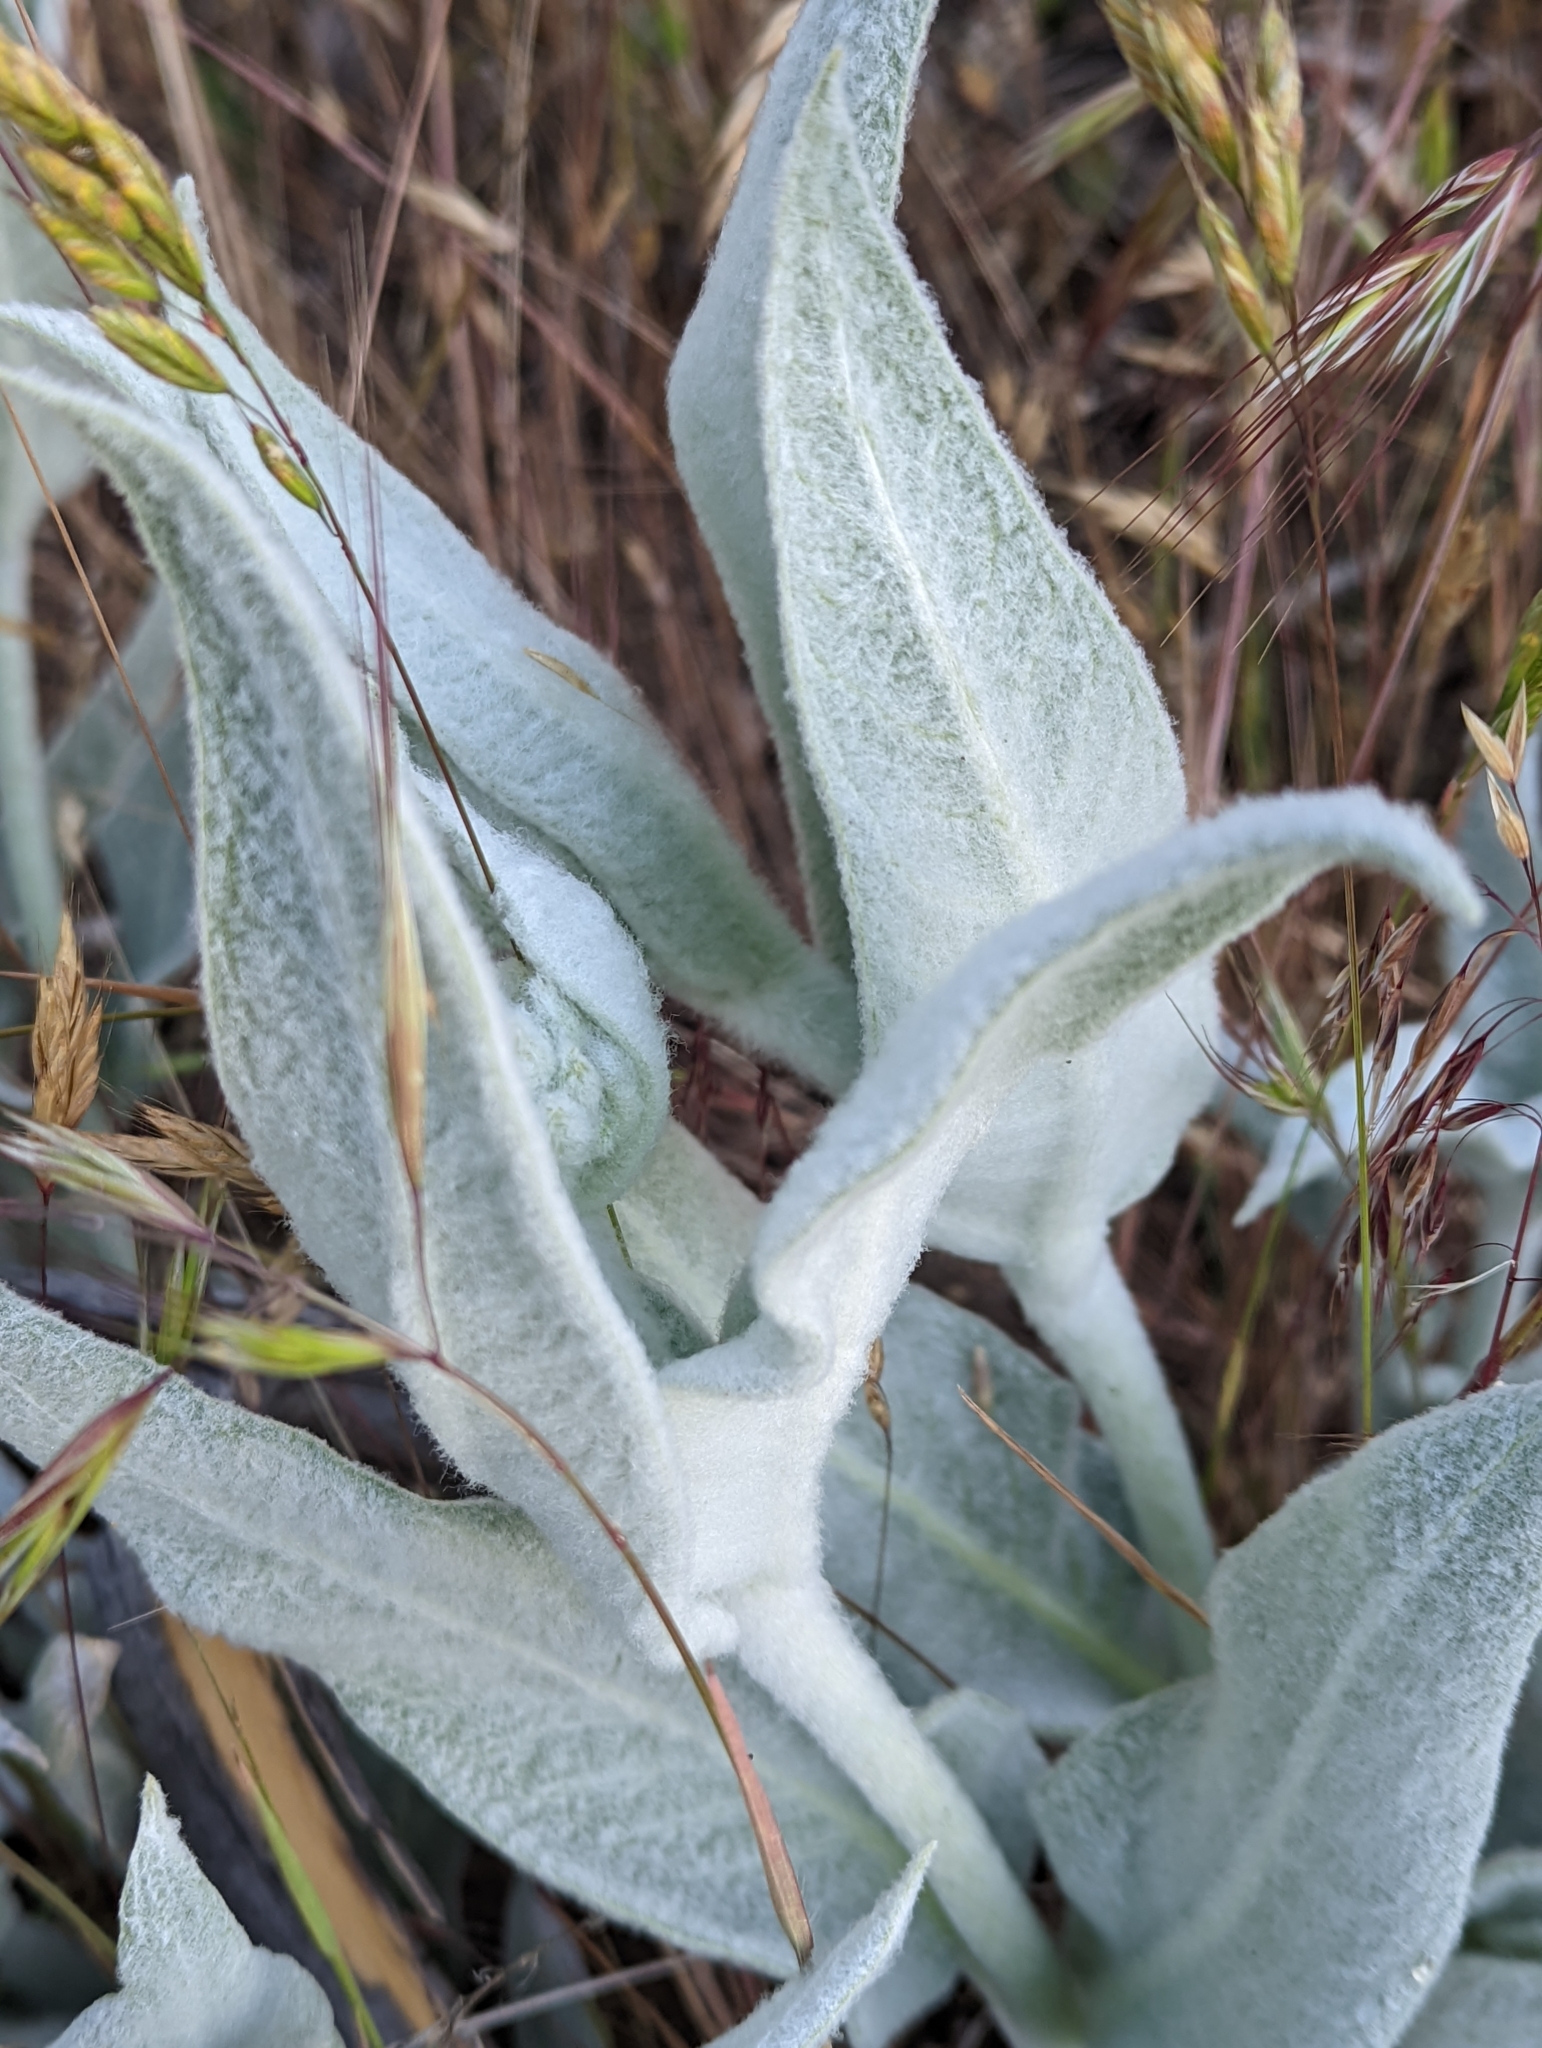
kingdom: Plantae
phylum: Tracheophyta
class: Magnoliopsida
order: Gentianales
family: Apocynaceae
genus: Asclepias
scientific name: Asclepias vestita
